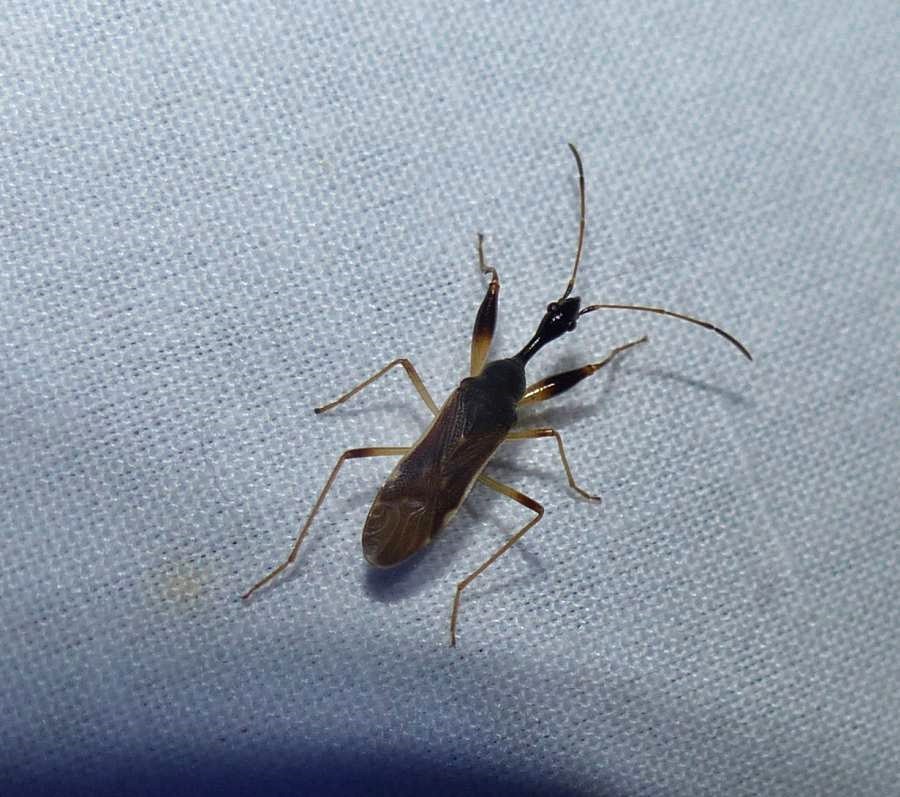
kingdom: Animalia
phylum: Arthropoda
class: Insecta
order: Hemiptera
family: Rhyparochromidae
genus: Myodocha
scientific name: Myodocha serripes
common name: Long-necked seed bug
